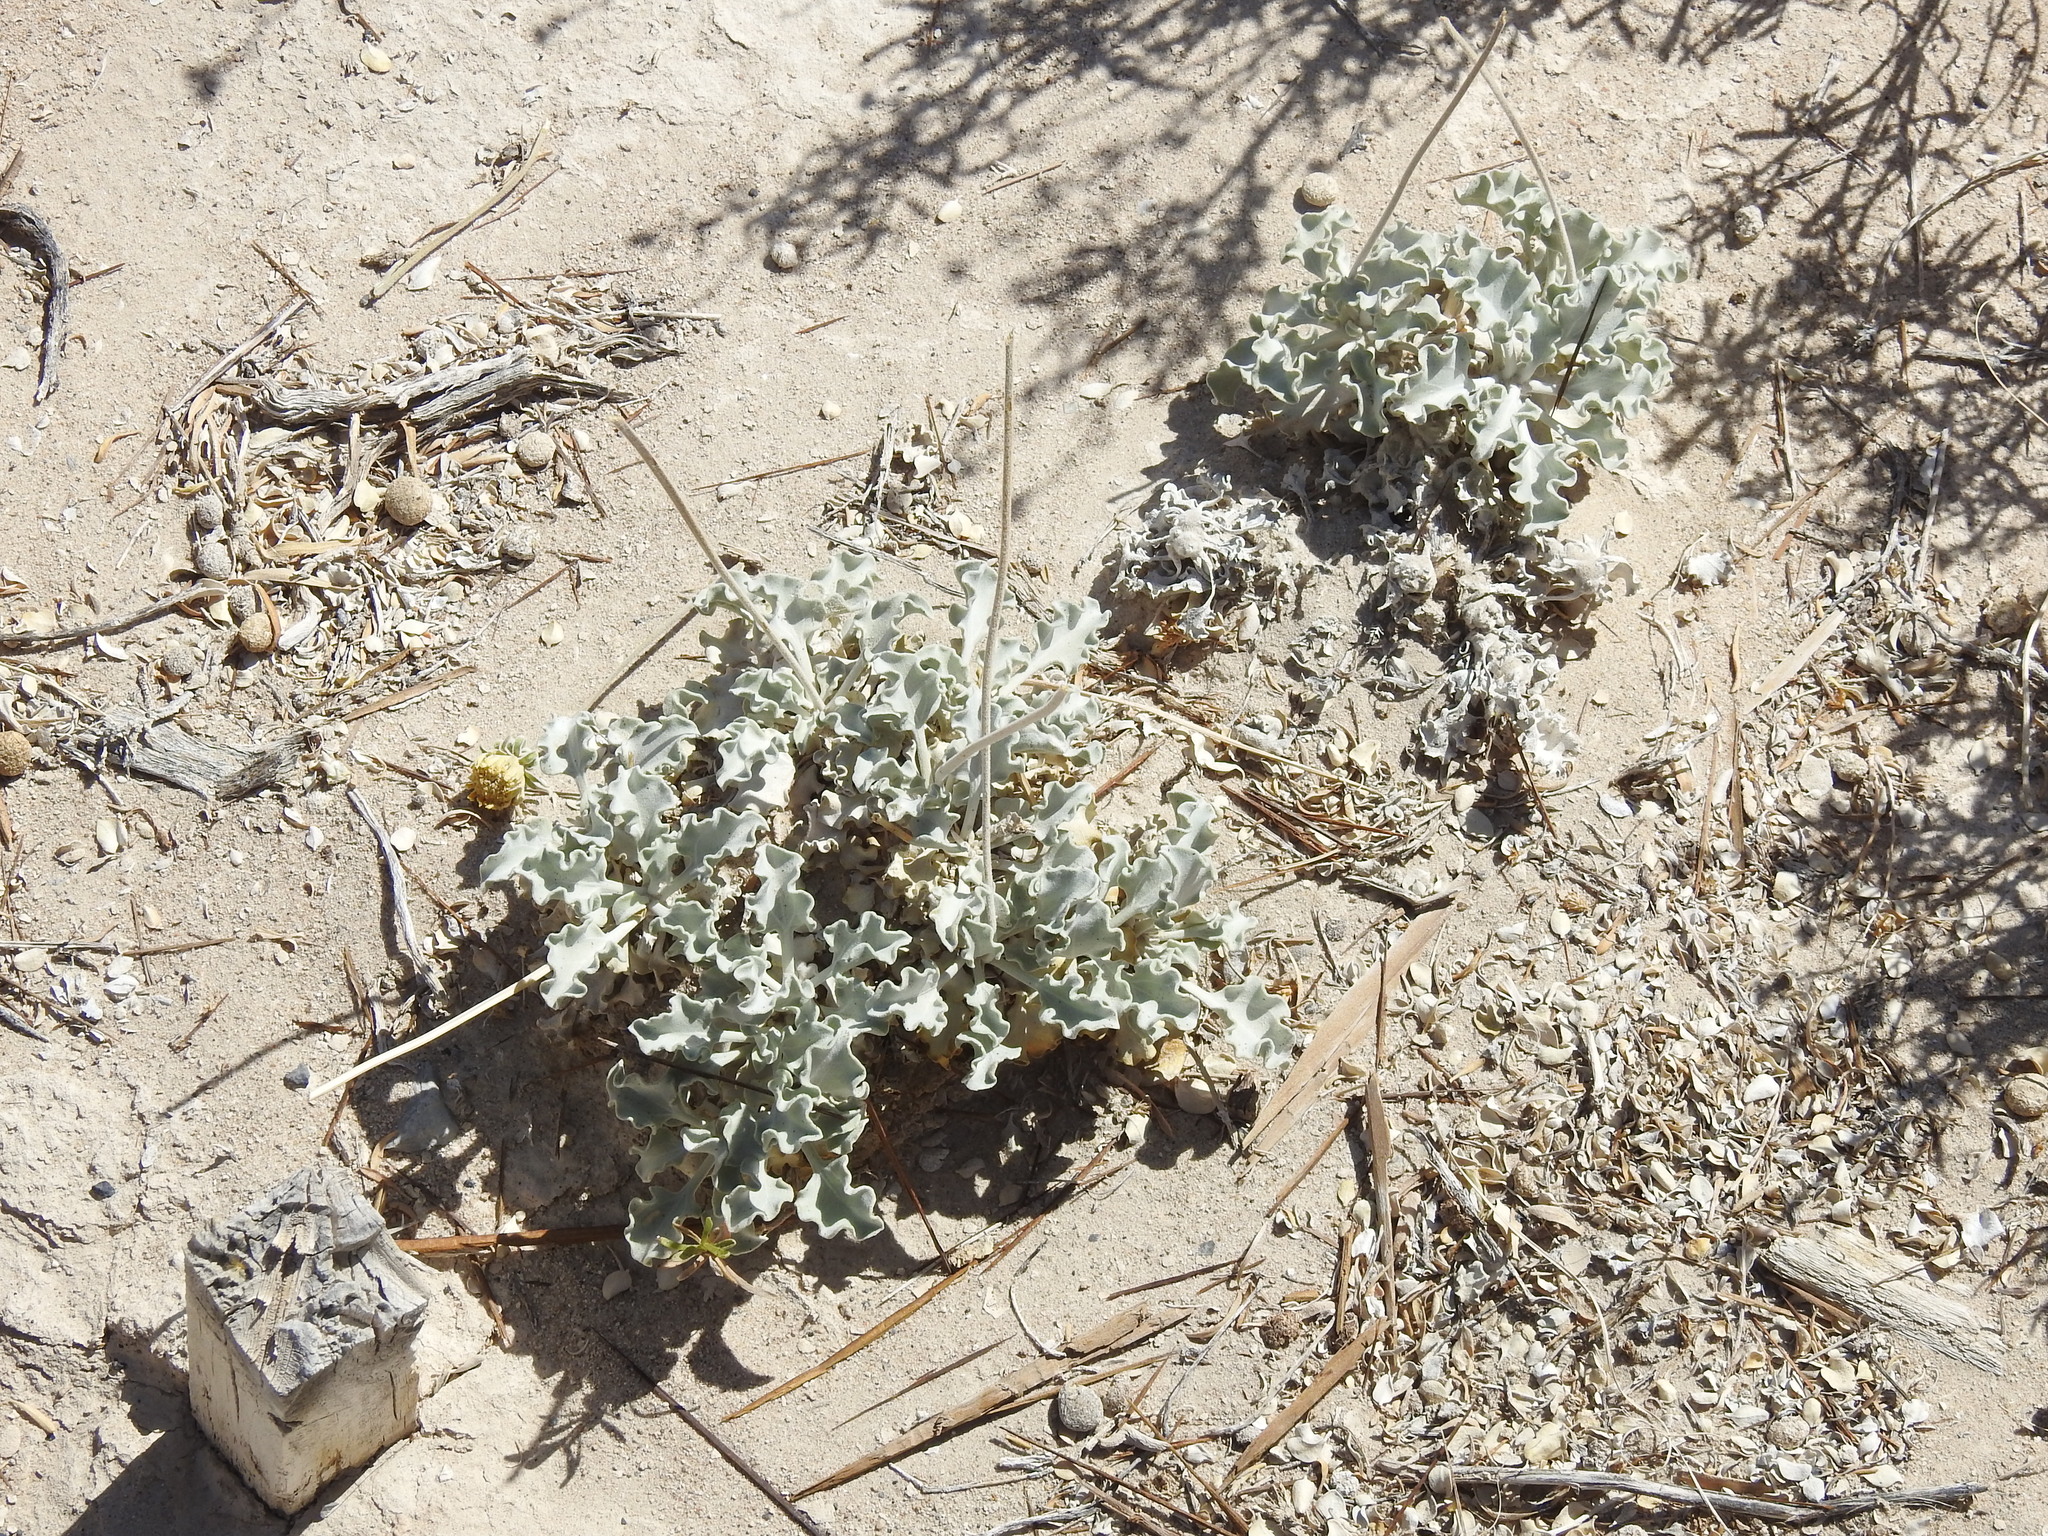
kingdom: Plantae
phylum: Tracheophyta
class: Magnoliopsida
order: Asterales
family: Asteraceae
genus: Enceliopsis
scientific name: Enceliopsis nudicaulis
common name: Naked-stem daisy
